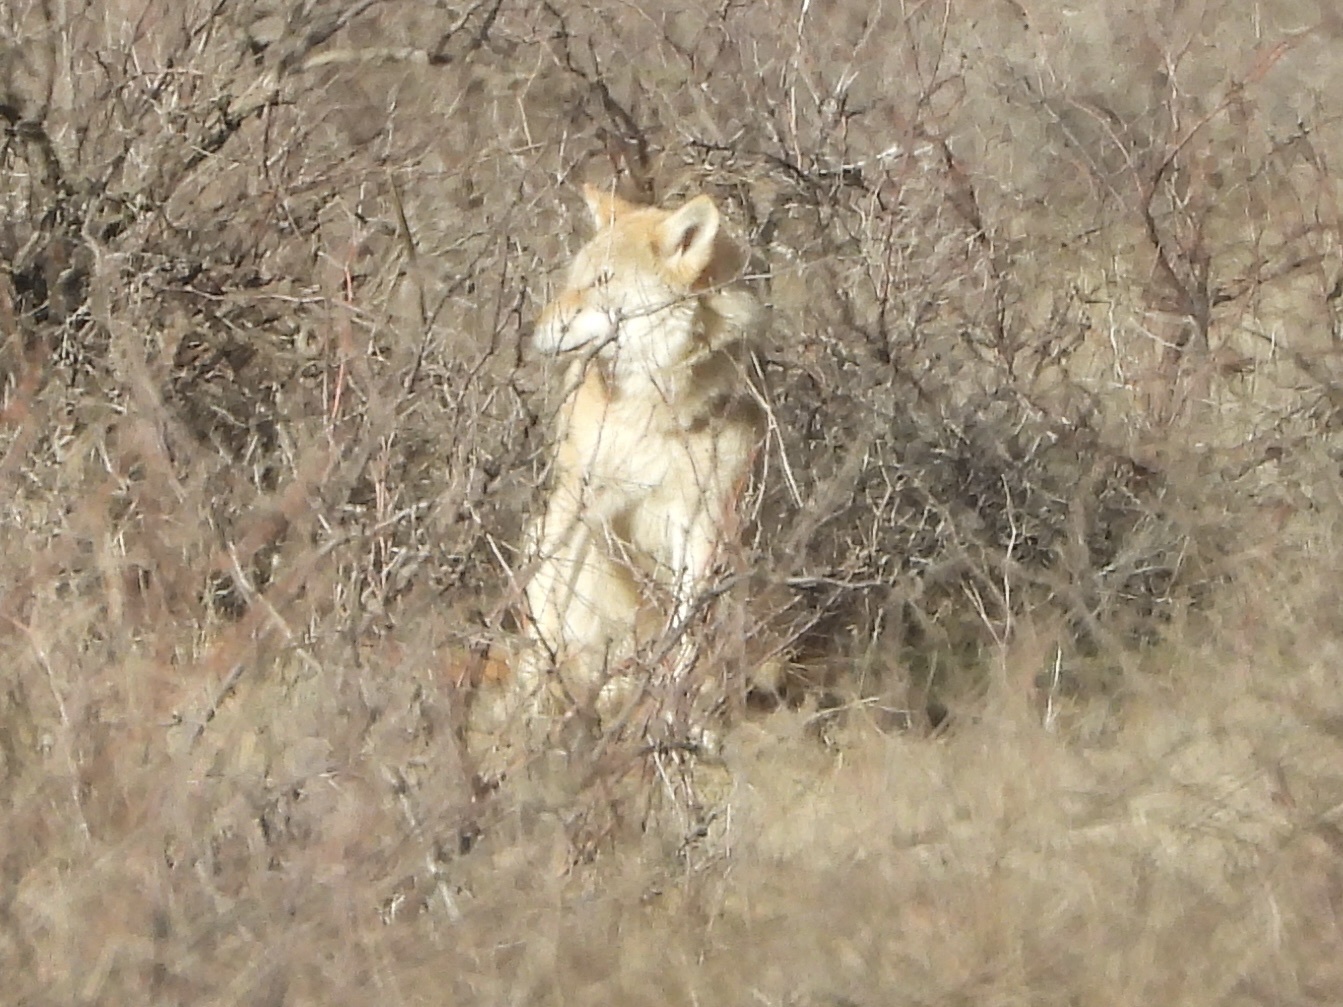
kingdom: Animalia
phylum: Chordata
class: Mammalia
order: Carnivora
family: Canidae
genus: Canis
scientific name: Canis lupus
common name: Gray wolf
